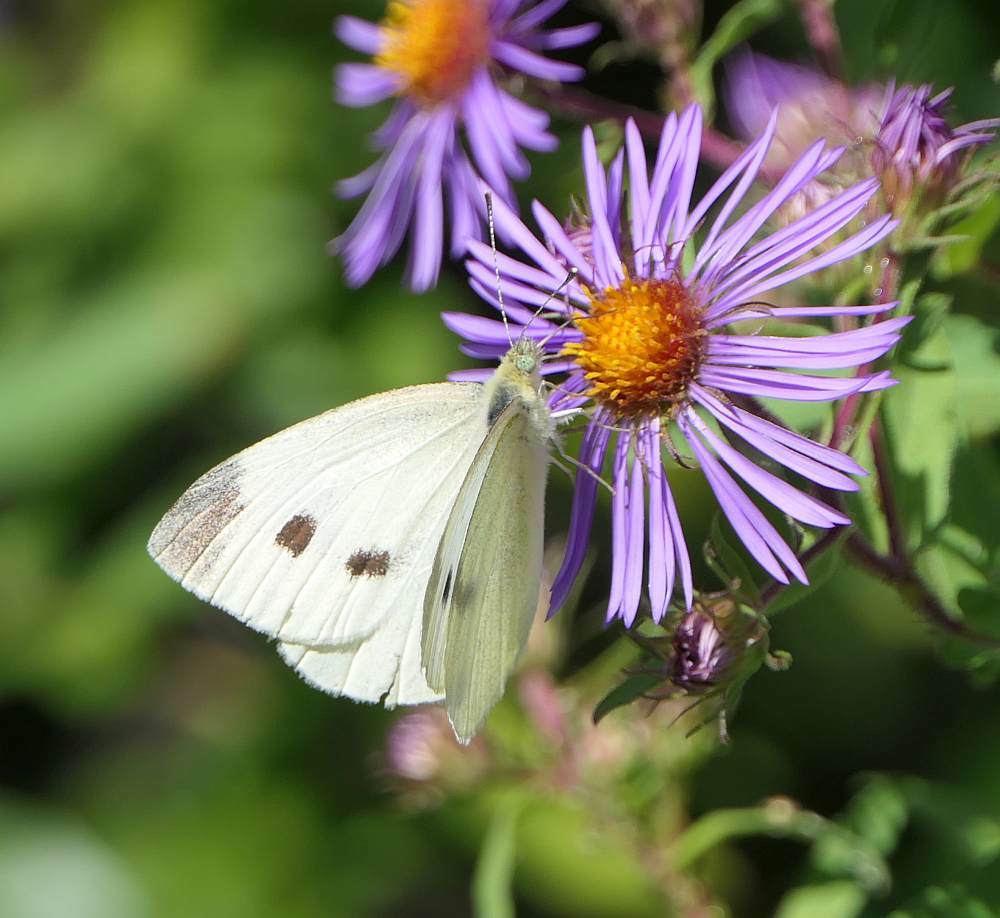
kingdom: Animalia
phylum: Arthropoda
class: Insecta
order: Lepidoptera
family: Pieridae
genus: Pieris
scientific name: Pieris rapae
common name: Small white
